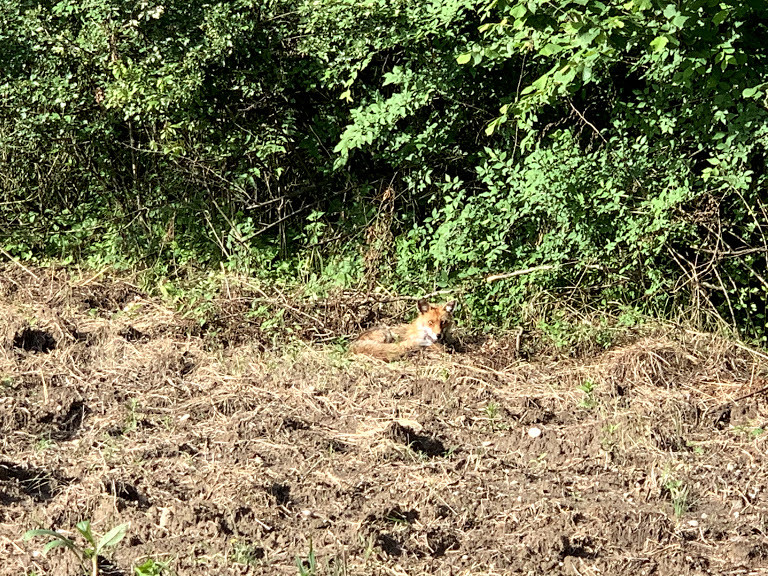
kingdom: Animalia
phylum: Chordata
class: Mammalia
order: Carnivora
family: Canidae
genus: Vulpes
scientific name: Vulpes vulpes
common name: Red fox
